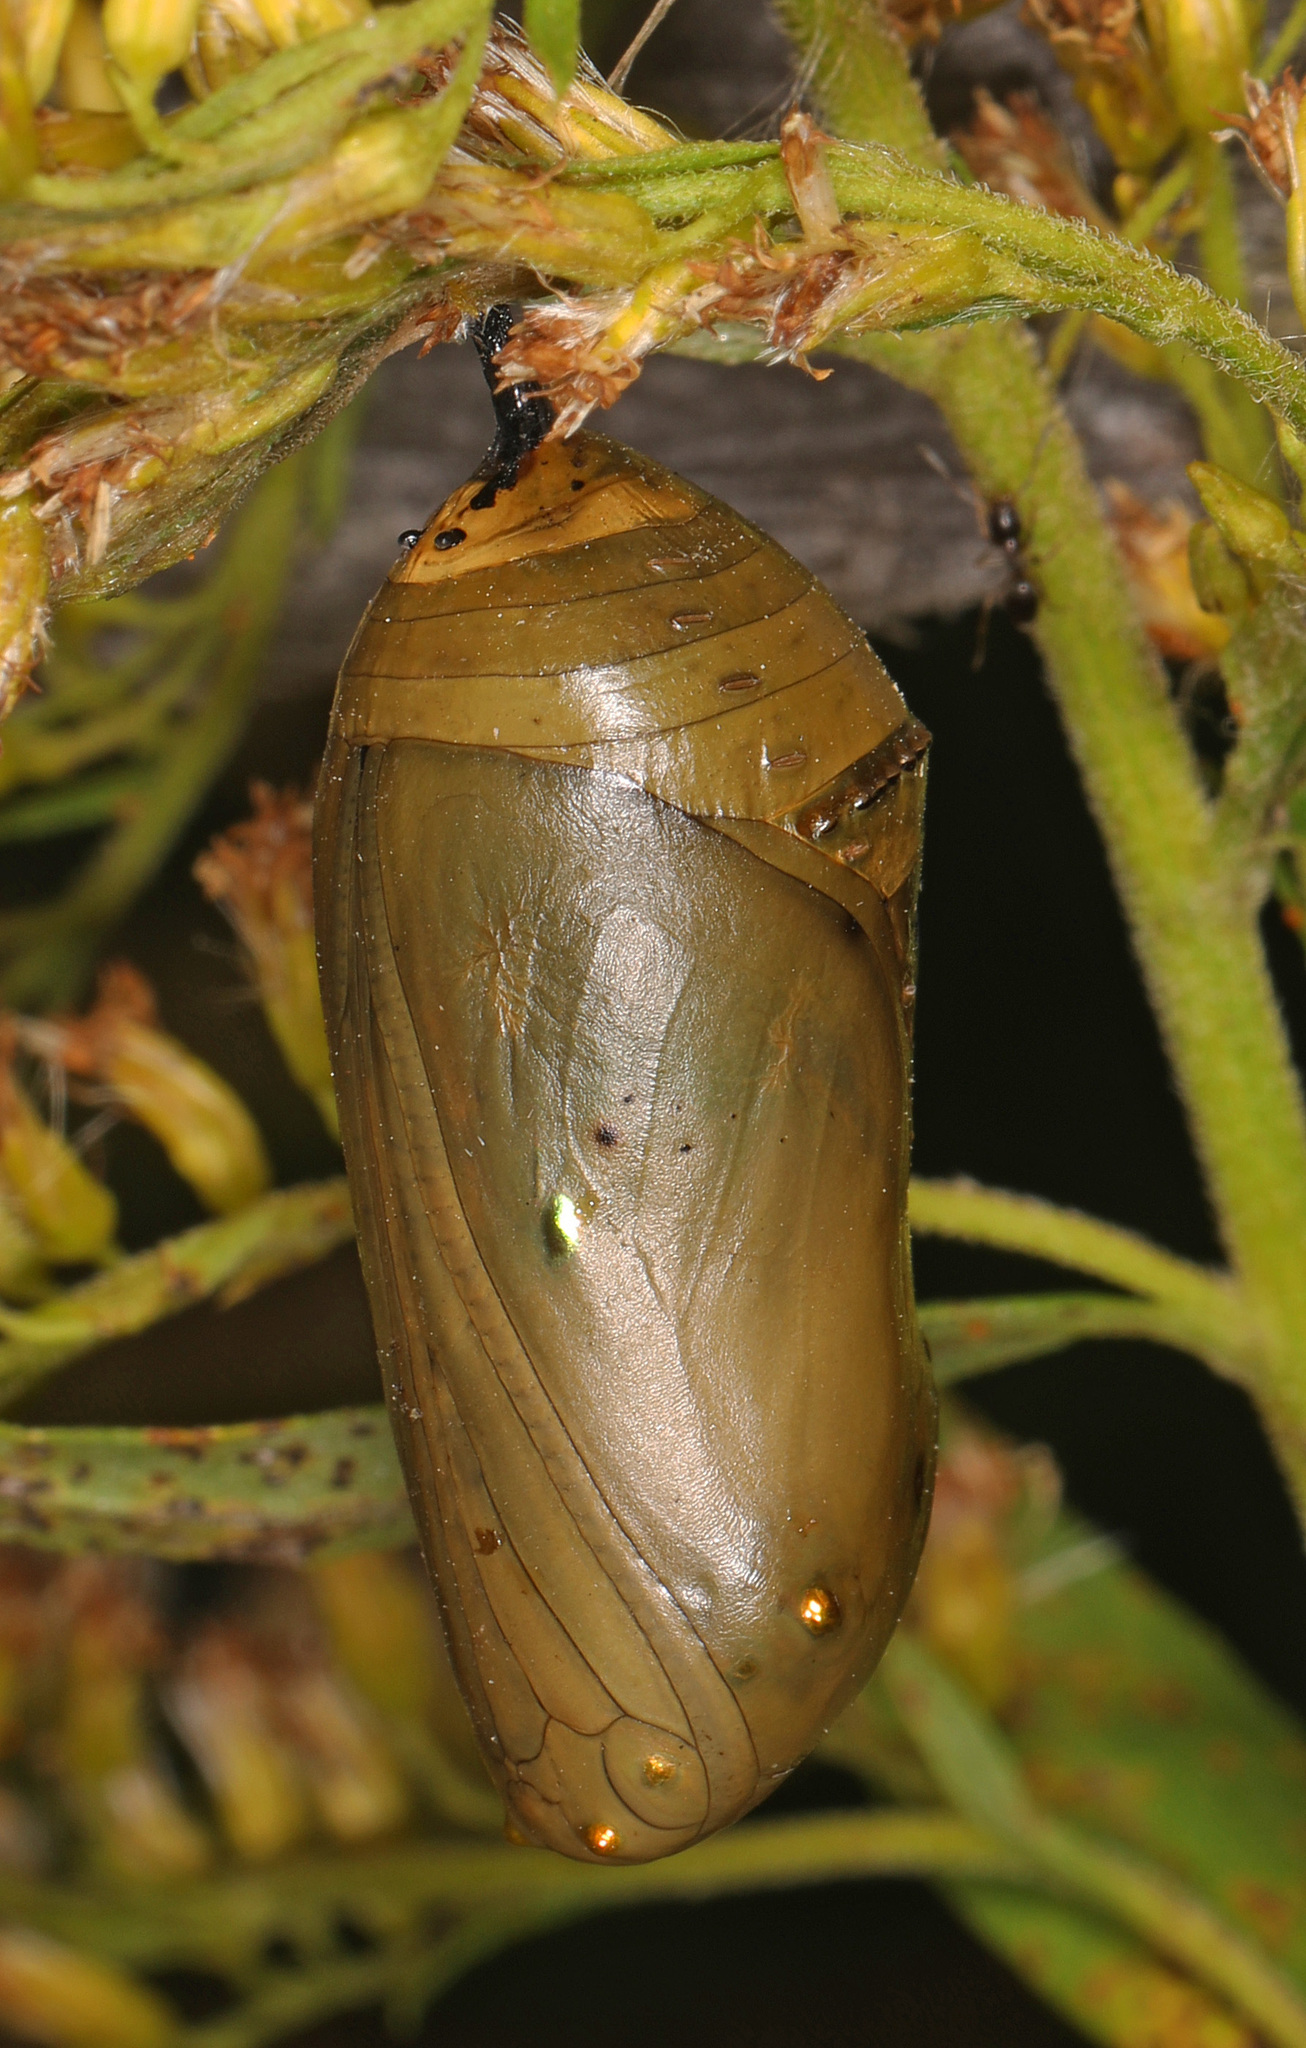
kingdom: Animalia
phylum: Arthropoda
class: Insecta
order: Lepidoptera
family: Nymphalidae
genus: Danaus
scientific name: Danaus plexippus
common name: Monarch
